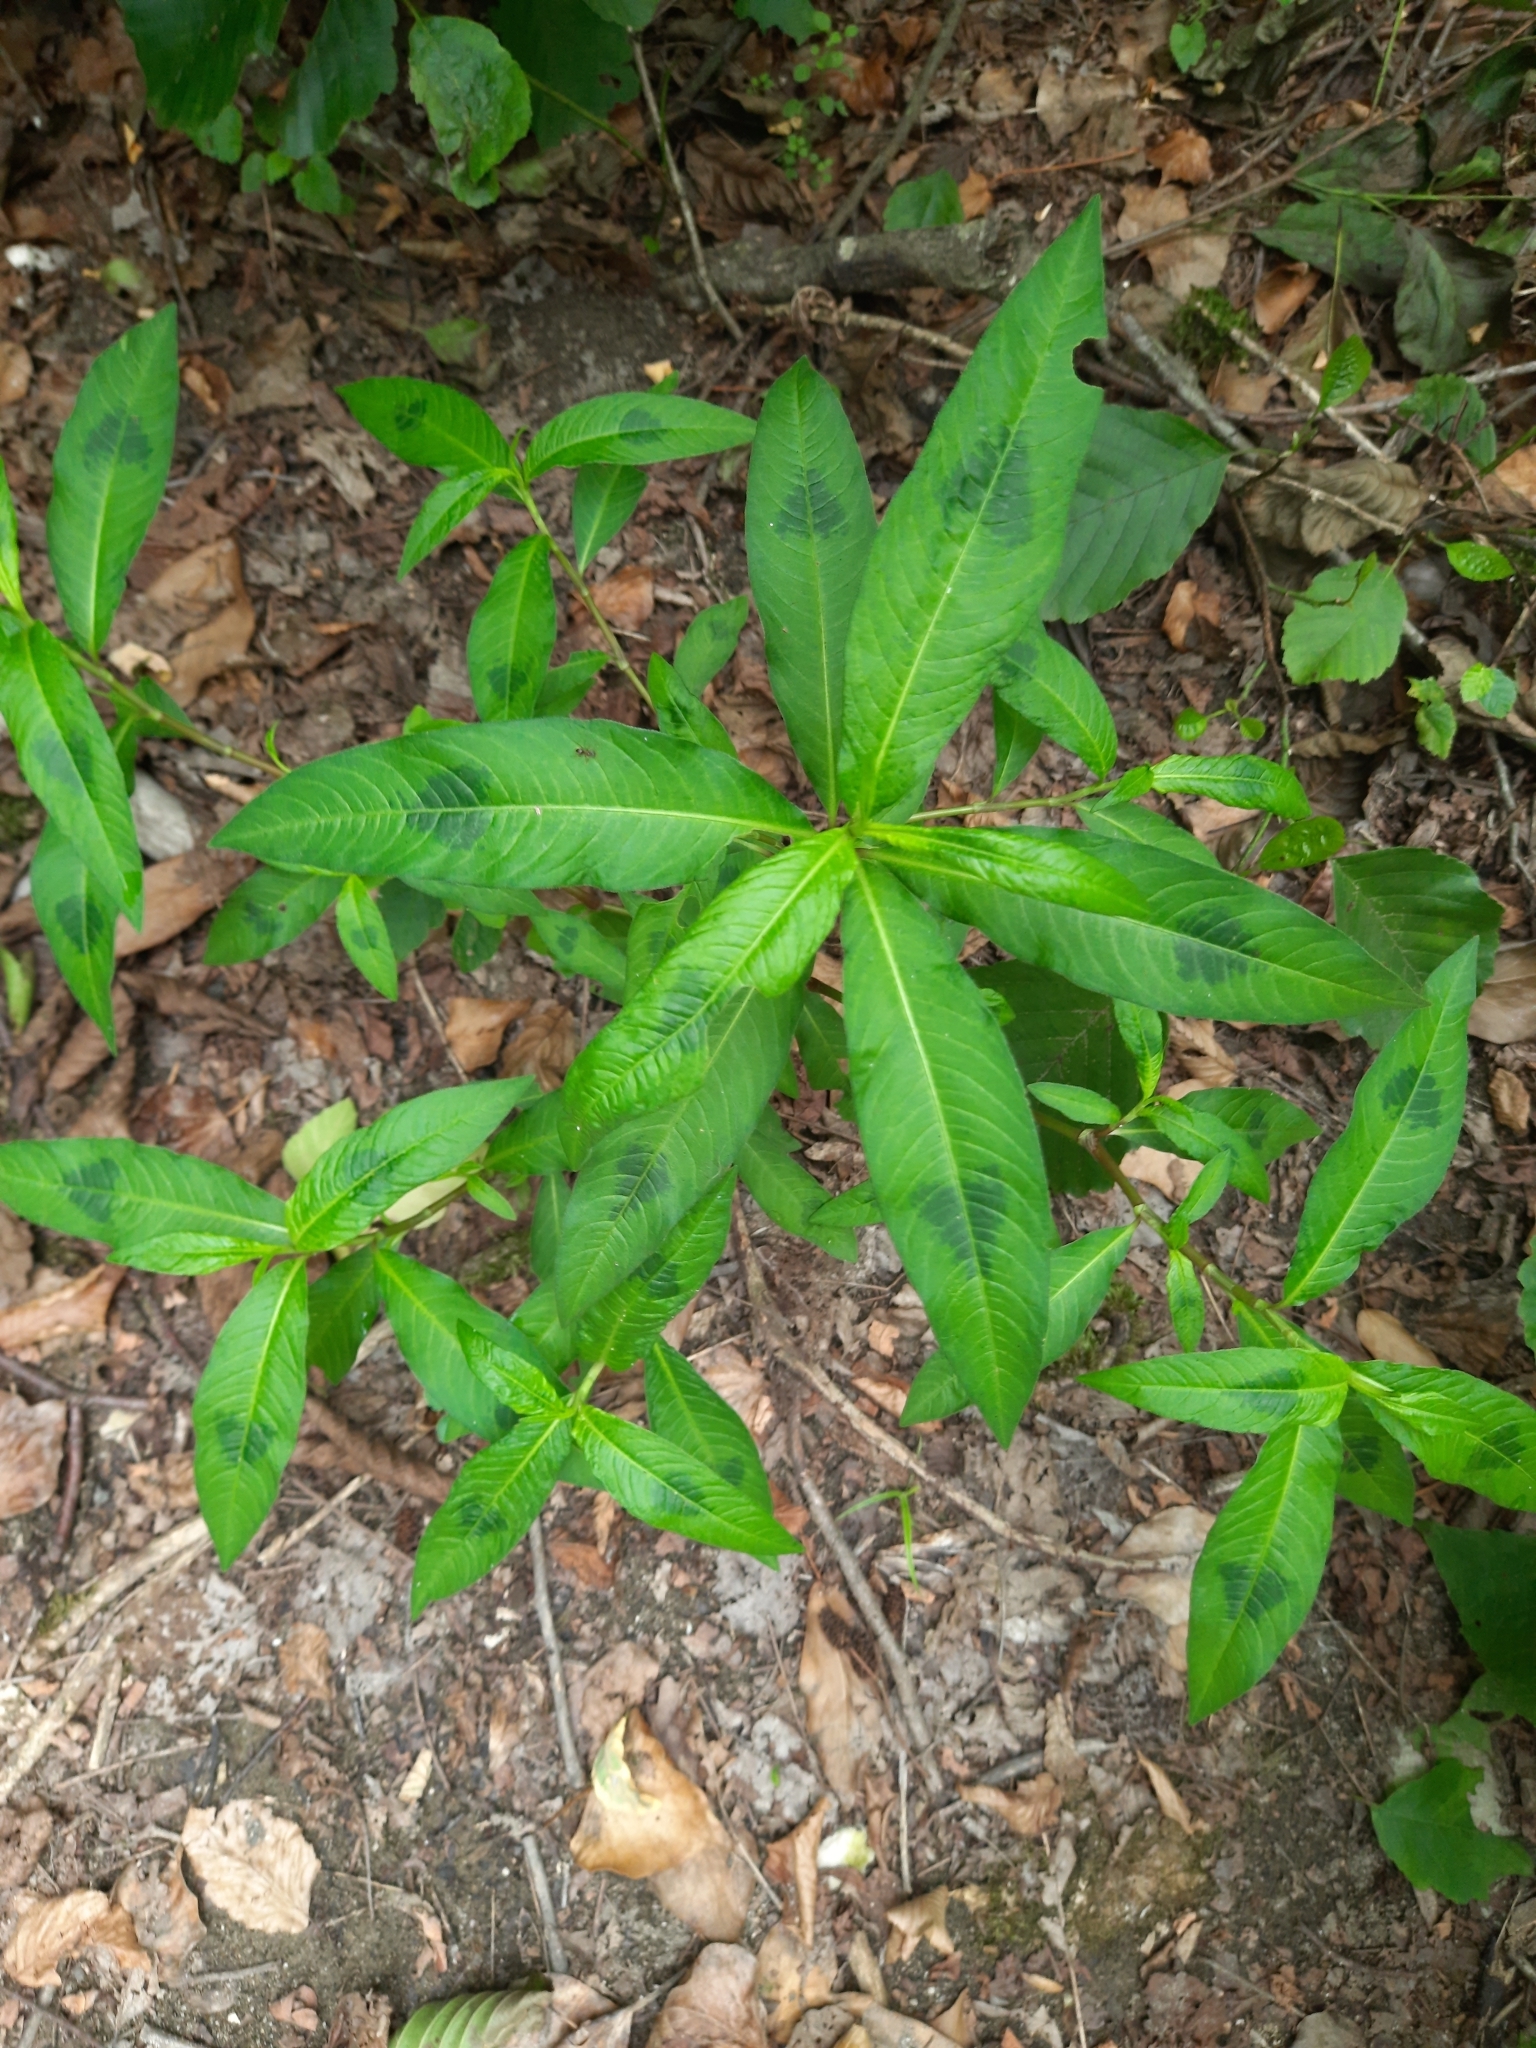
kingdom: Plantae
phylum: Tracheophyta
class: Magnoliopsida
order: Caryophyllales
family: Polygonaceae
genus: Persicaria
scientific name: Persicaria maculosa
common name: Redshank
